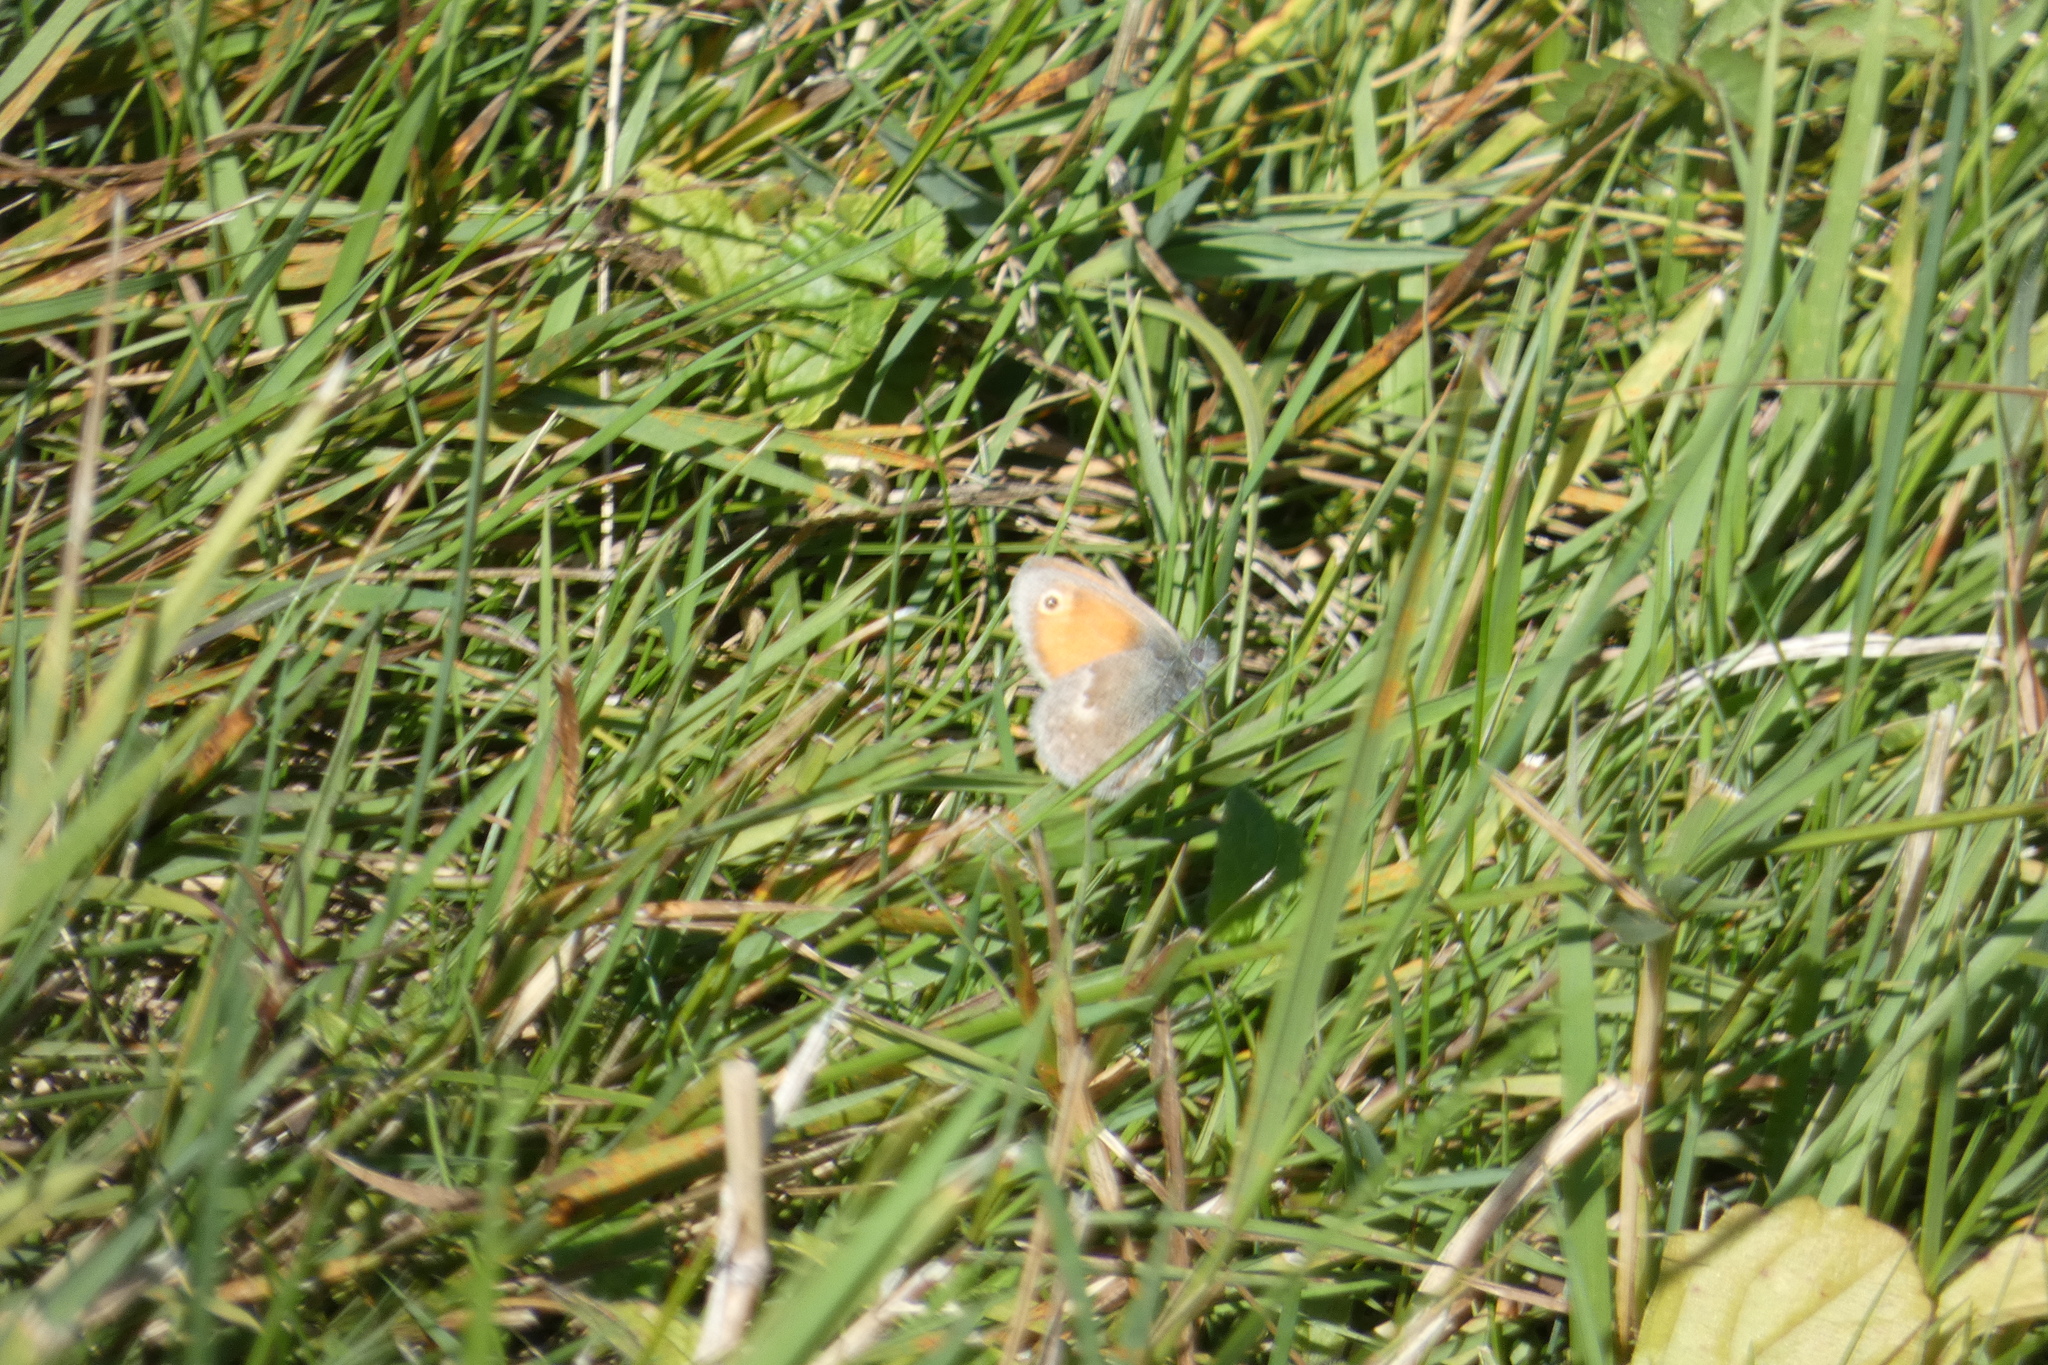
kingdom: Animalia
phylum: Arthropoda
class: Insecta
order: Lepidoptera
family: Nymphalidae
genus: Coenonympha
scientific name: Coenonympha pamphilus
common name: Small heath
